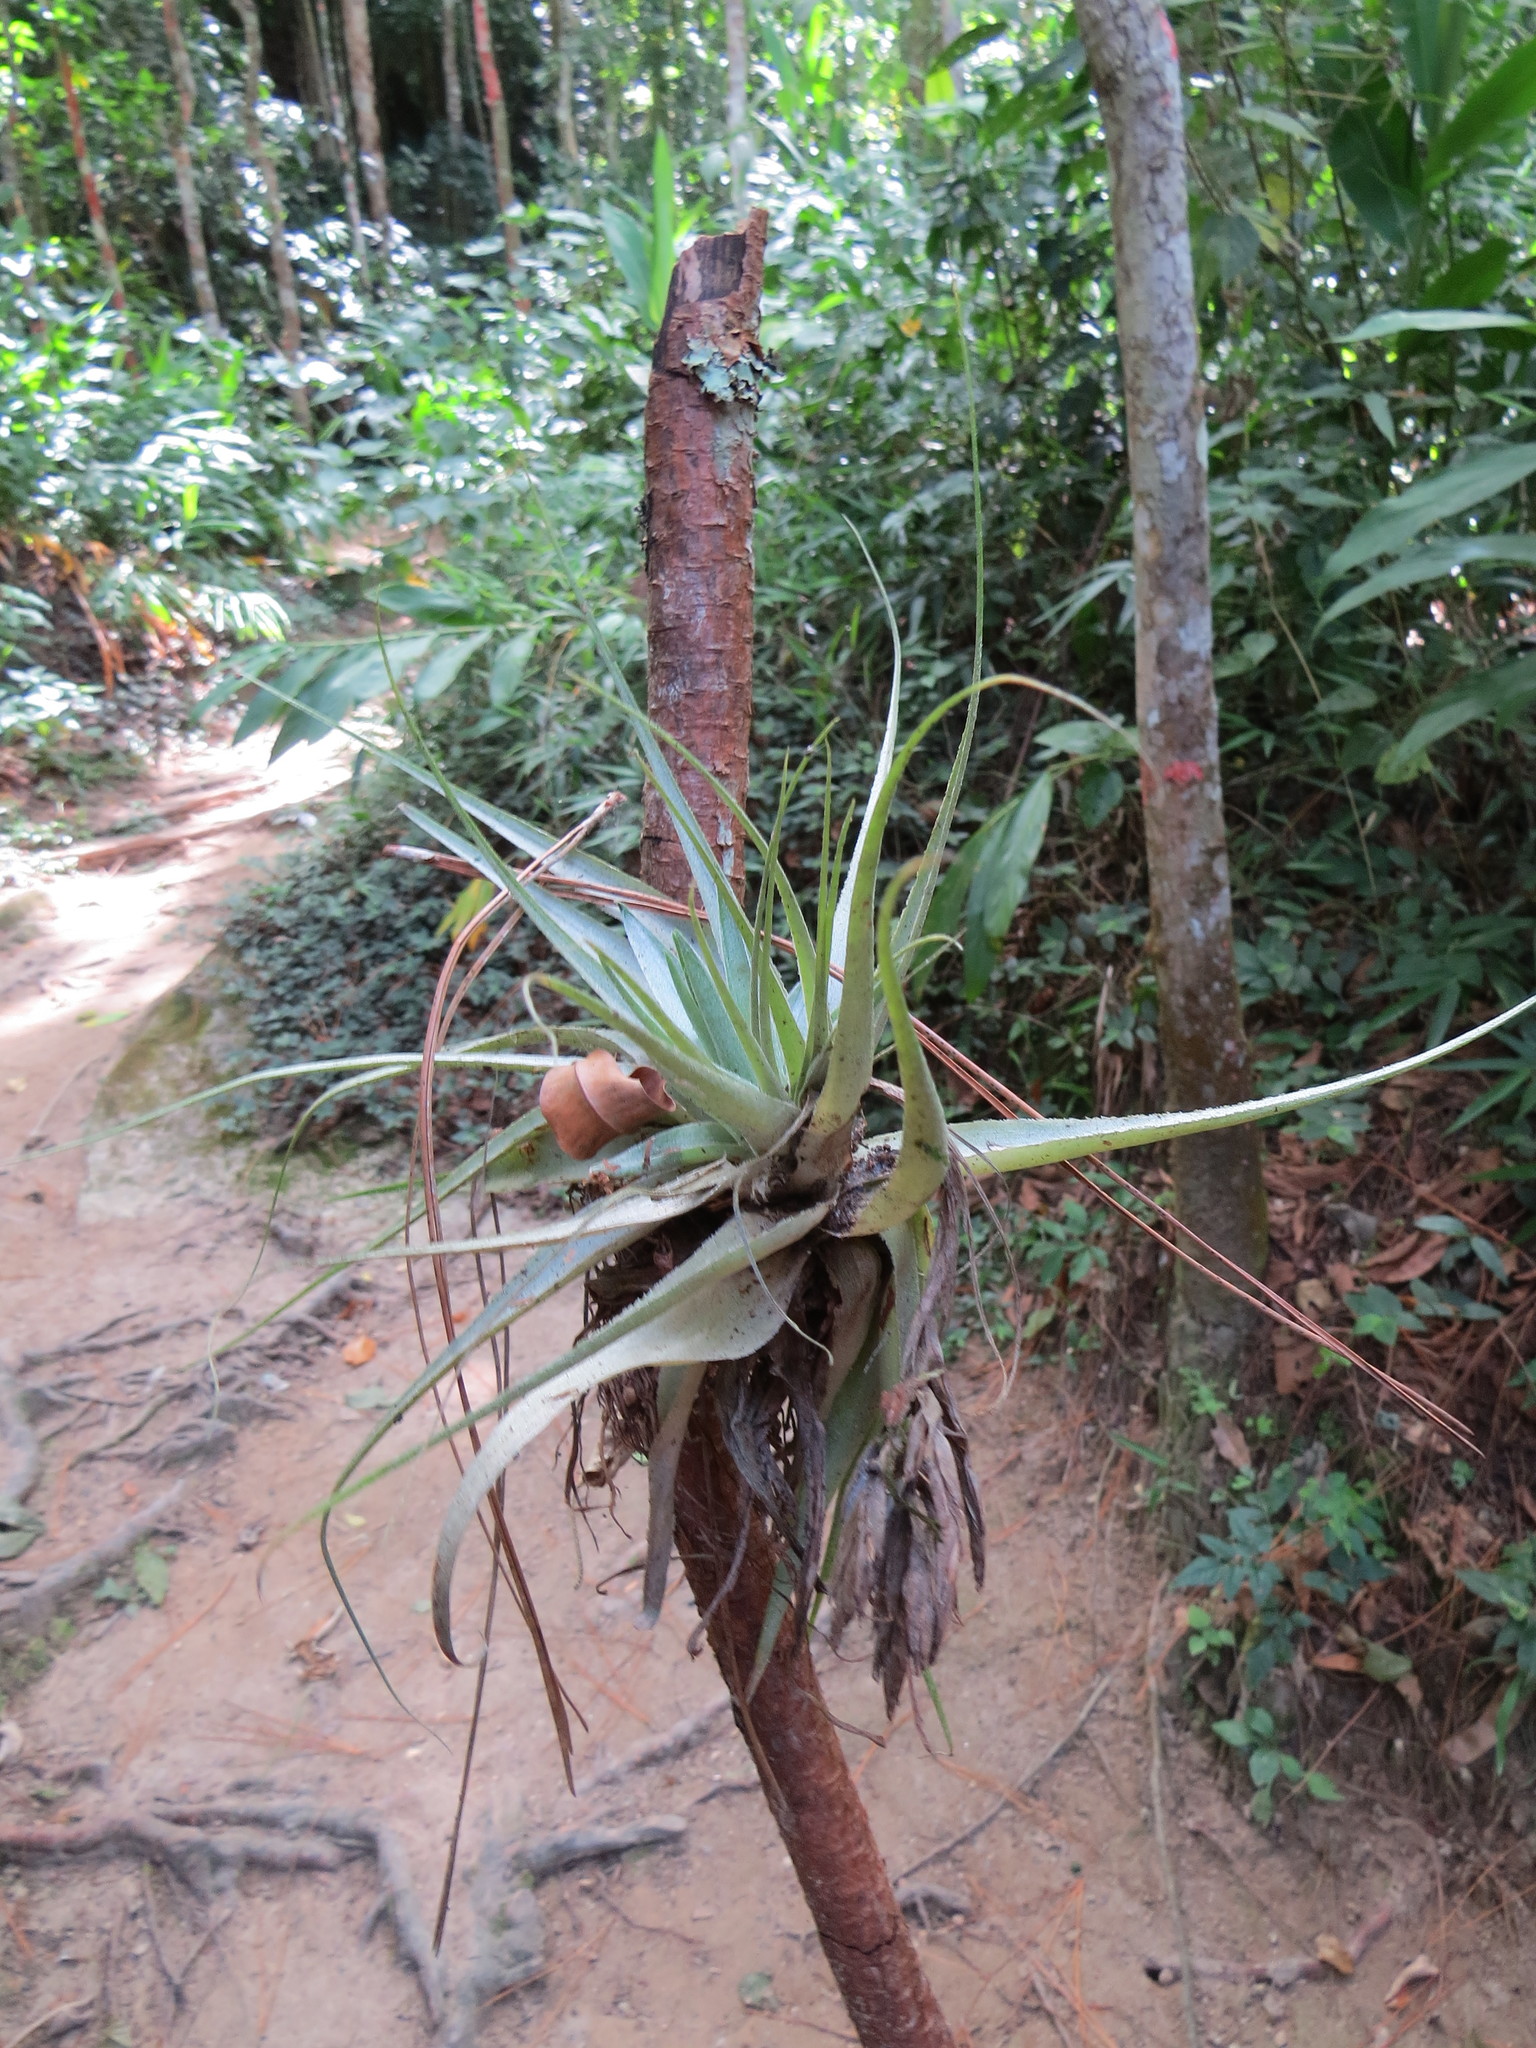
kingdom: Plantae
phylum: Tracheophyta
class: Liliopsida
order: Poales
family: Bromeliaceae
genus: Tillandsia
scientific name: Tillandsia gardneri
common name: Airplant
